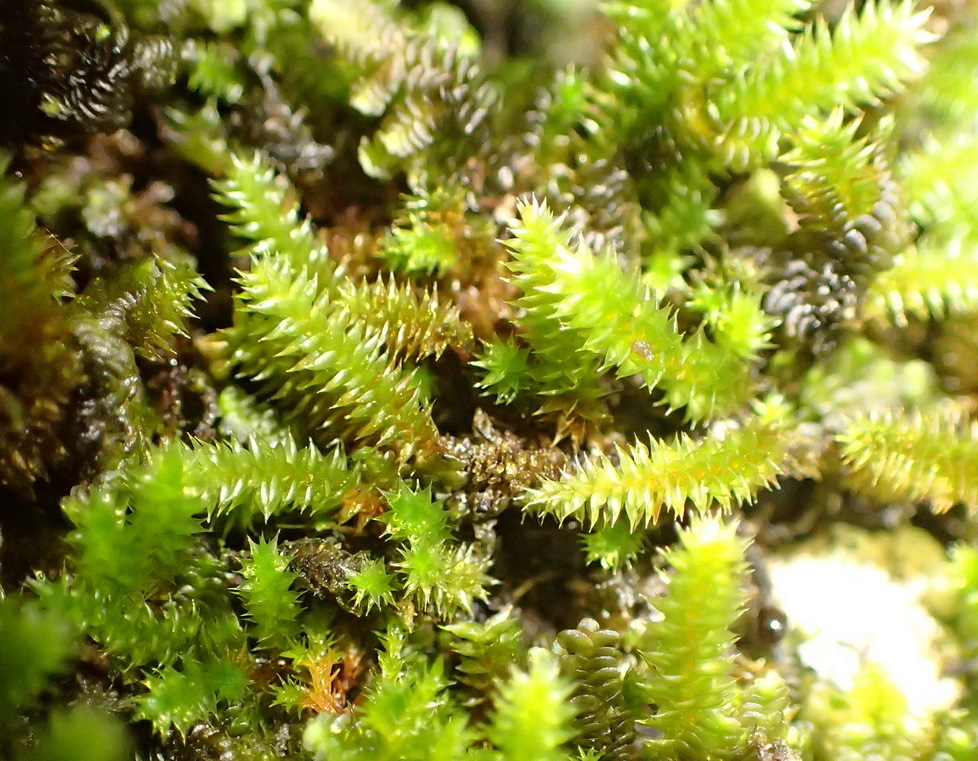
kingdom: Plantae
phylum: Bryophyta
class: Bryopsida
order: Hypnales
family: Leucodontaceae
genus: Pterogoniadelphus
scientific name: Pterogoniadelphus assimilis
